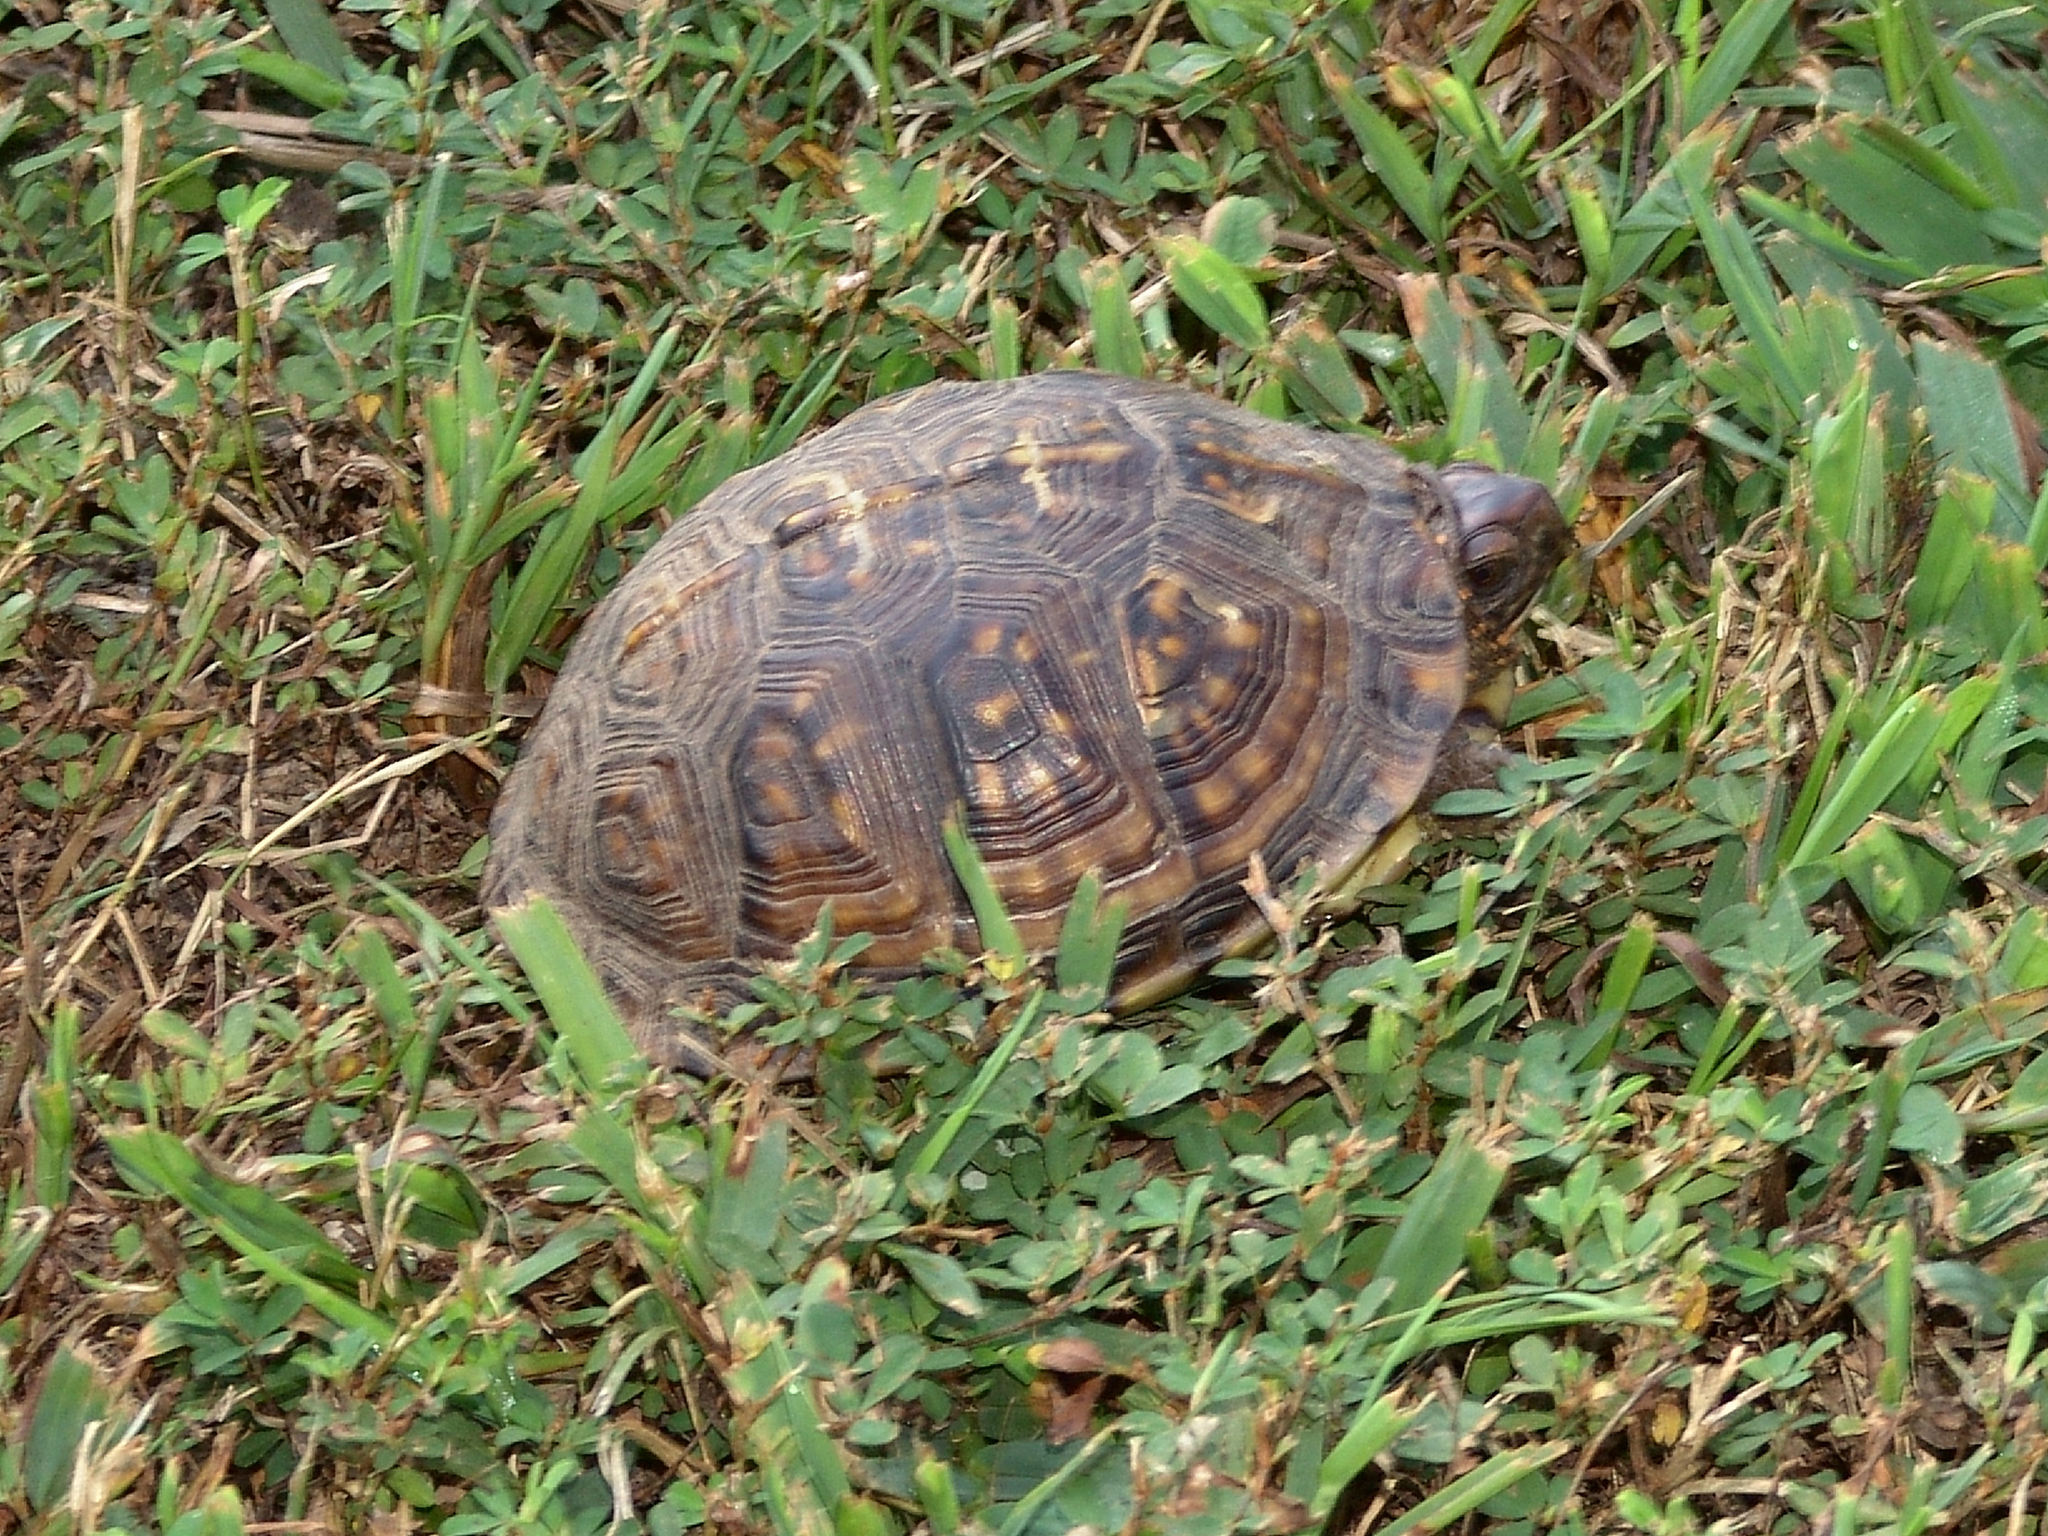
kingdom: Animalia
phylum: Chordata
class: Testudines
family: Emydidae
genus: Terrapene
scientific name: Terrapene carolina
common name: Common box turtle
